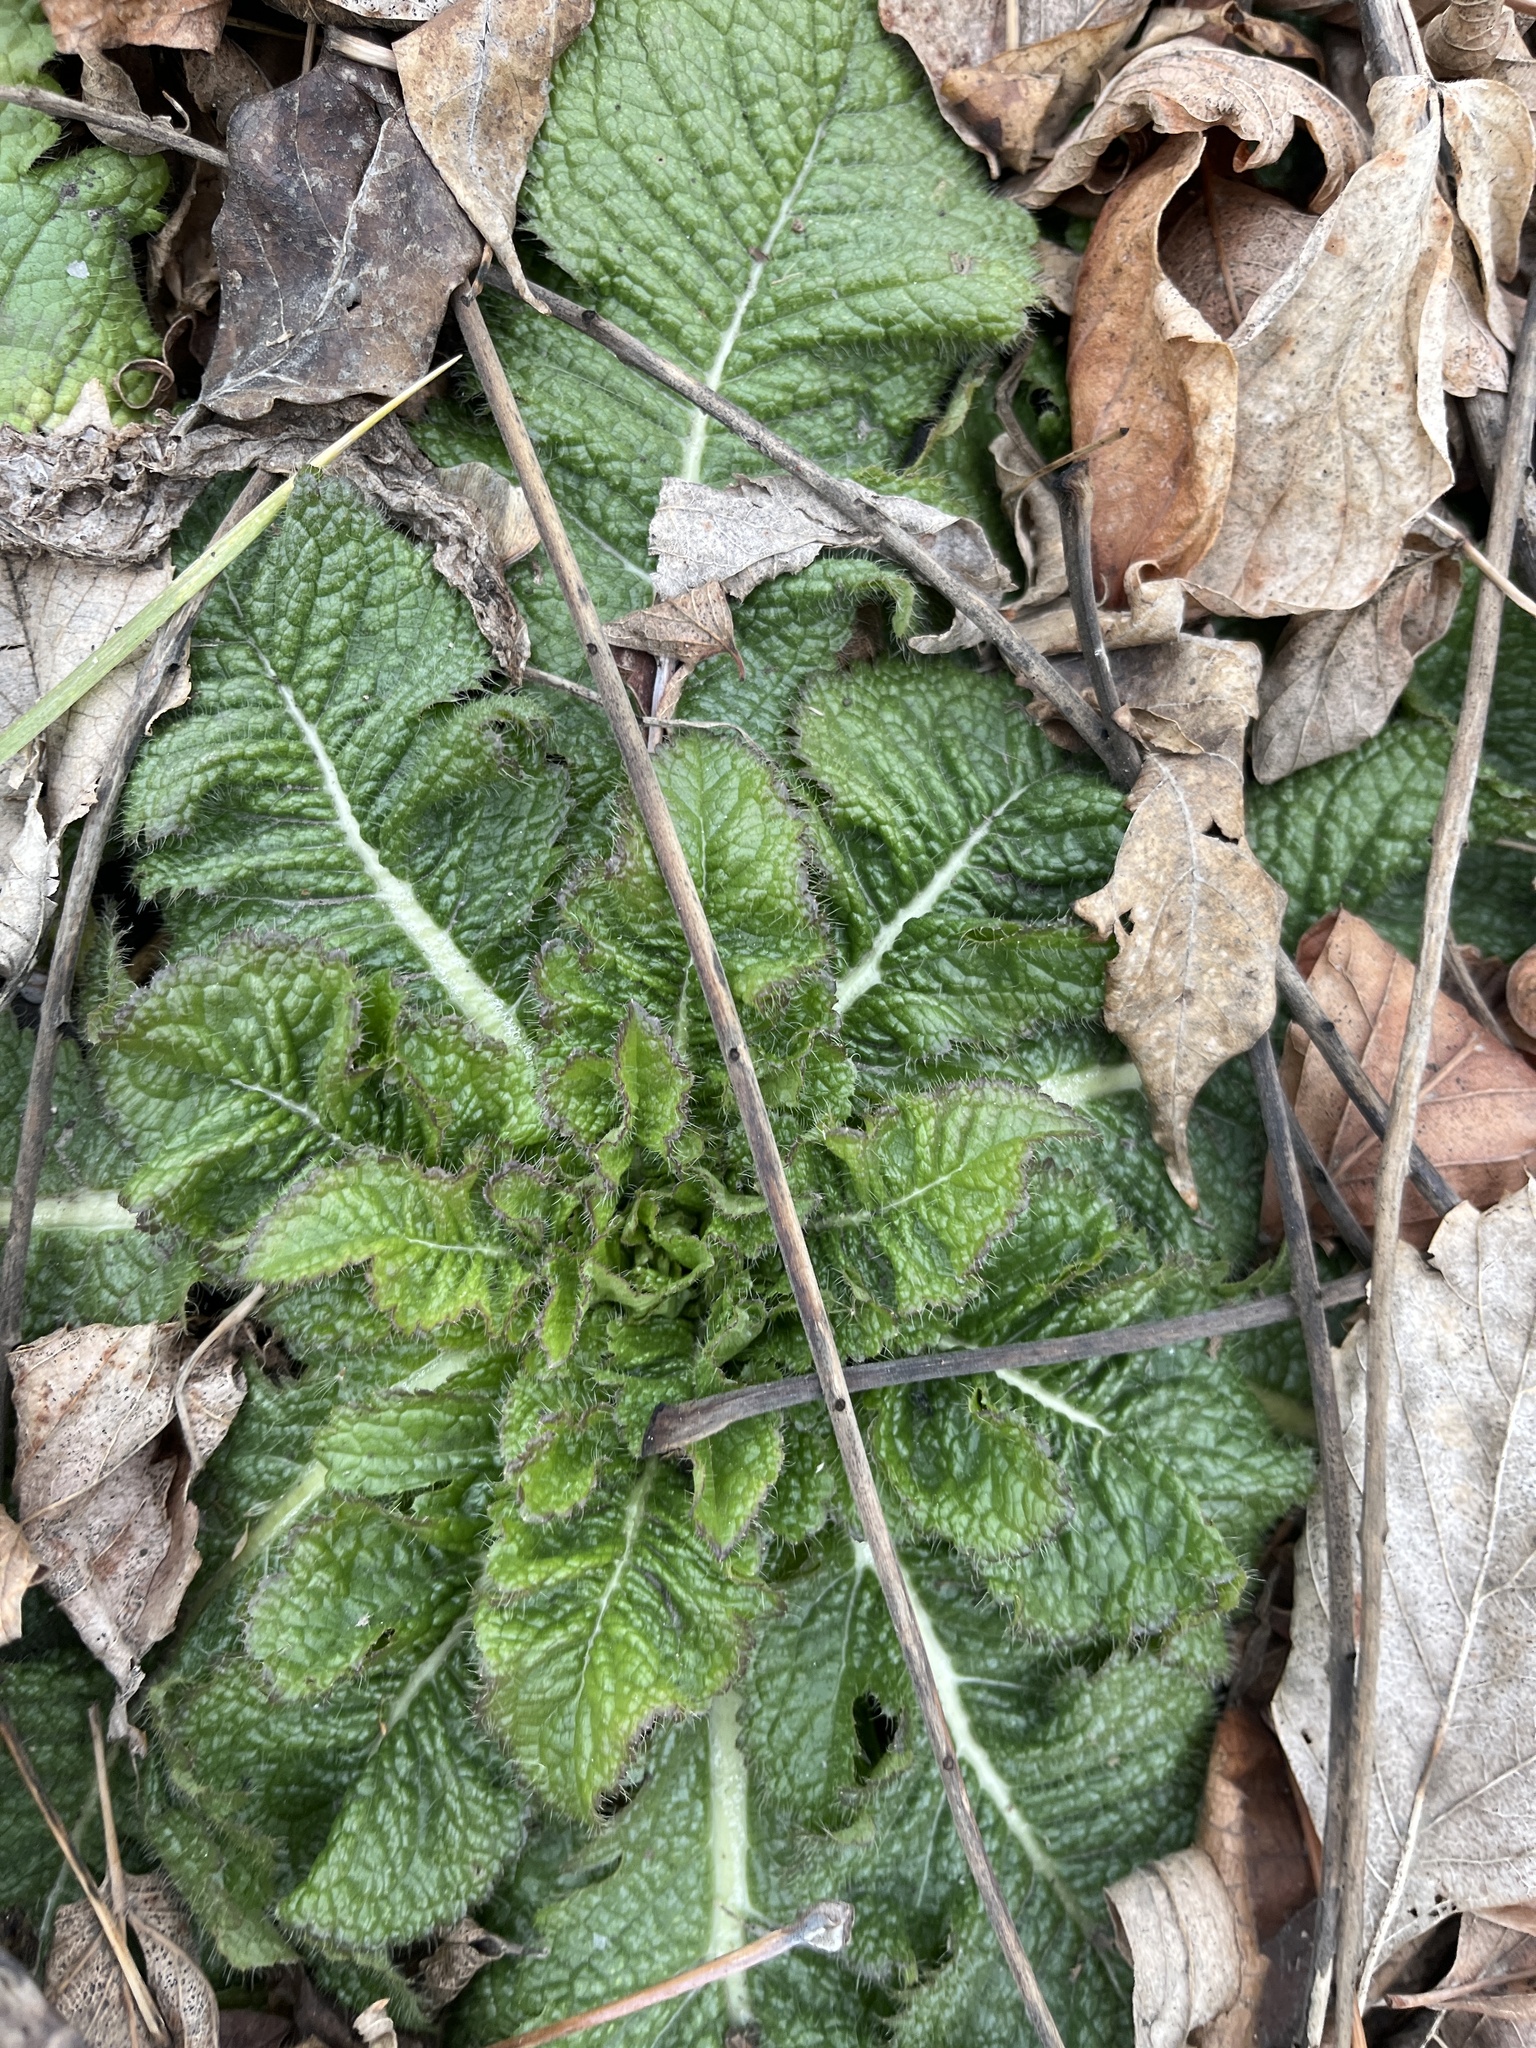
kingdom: Plantae
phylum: Tracheophyta
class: Magnoliopsida
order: Dipsacales
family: Caprifoliaceae
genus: Dipsacus
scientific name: Dipsacus laciniatus
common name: Cut-leaved teasel
